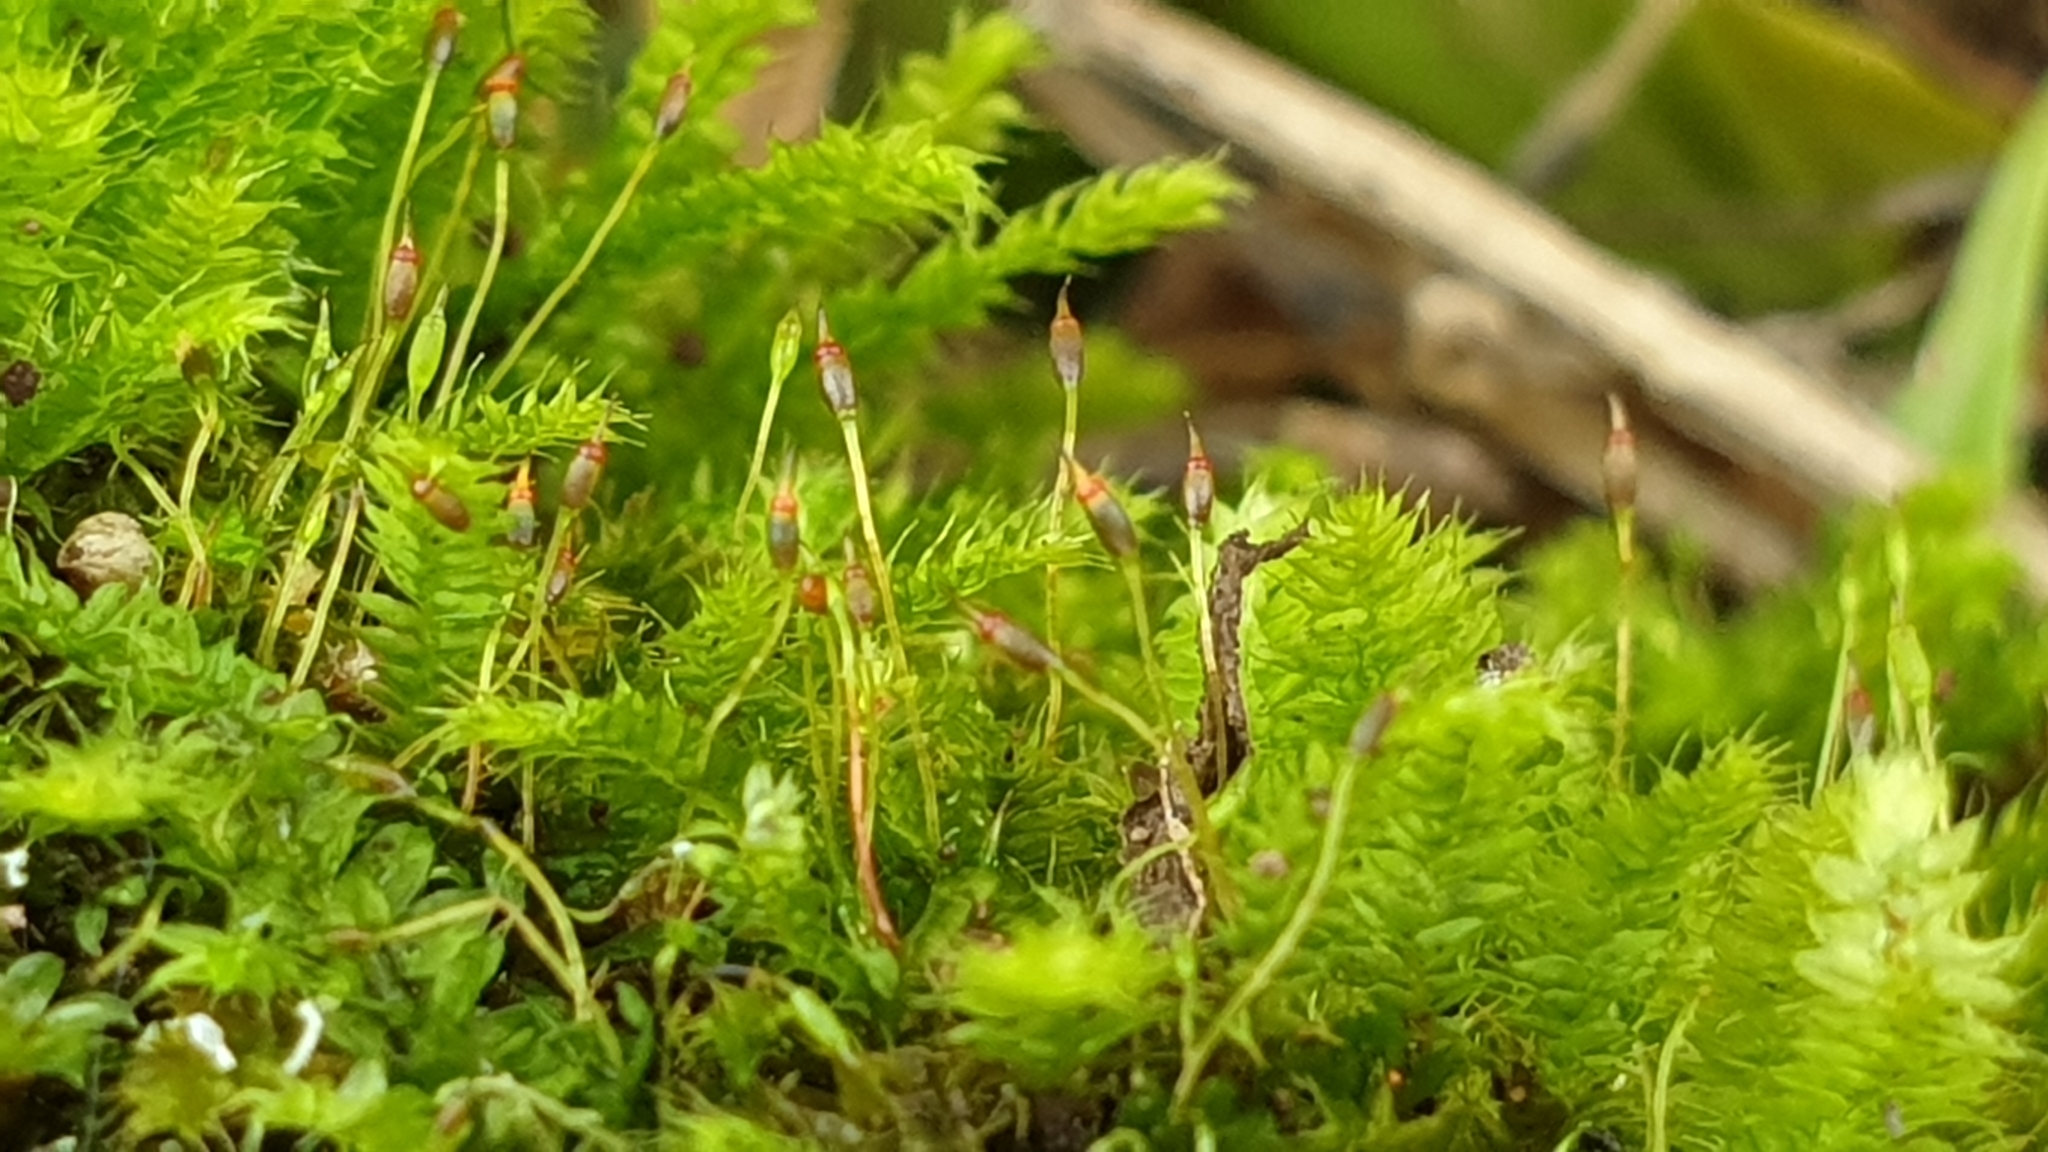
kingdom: Plantae
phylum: Bryophyta
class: Bryopsida
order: Hypnodendrales
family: Racopilaceae
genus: Racopilum
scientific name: Racopilum cuspidigerum
